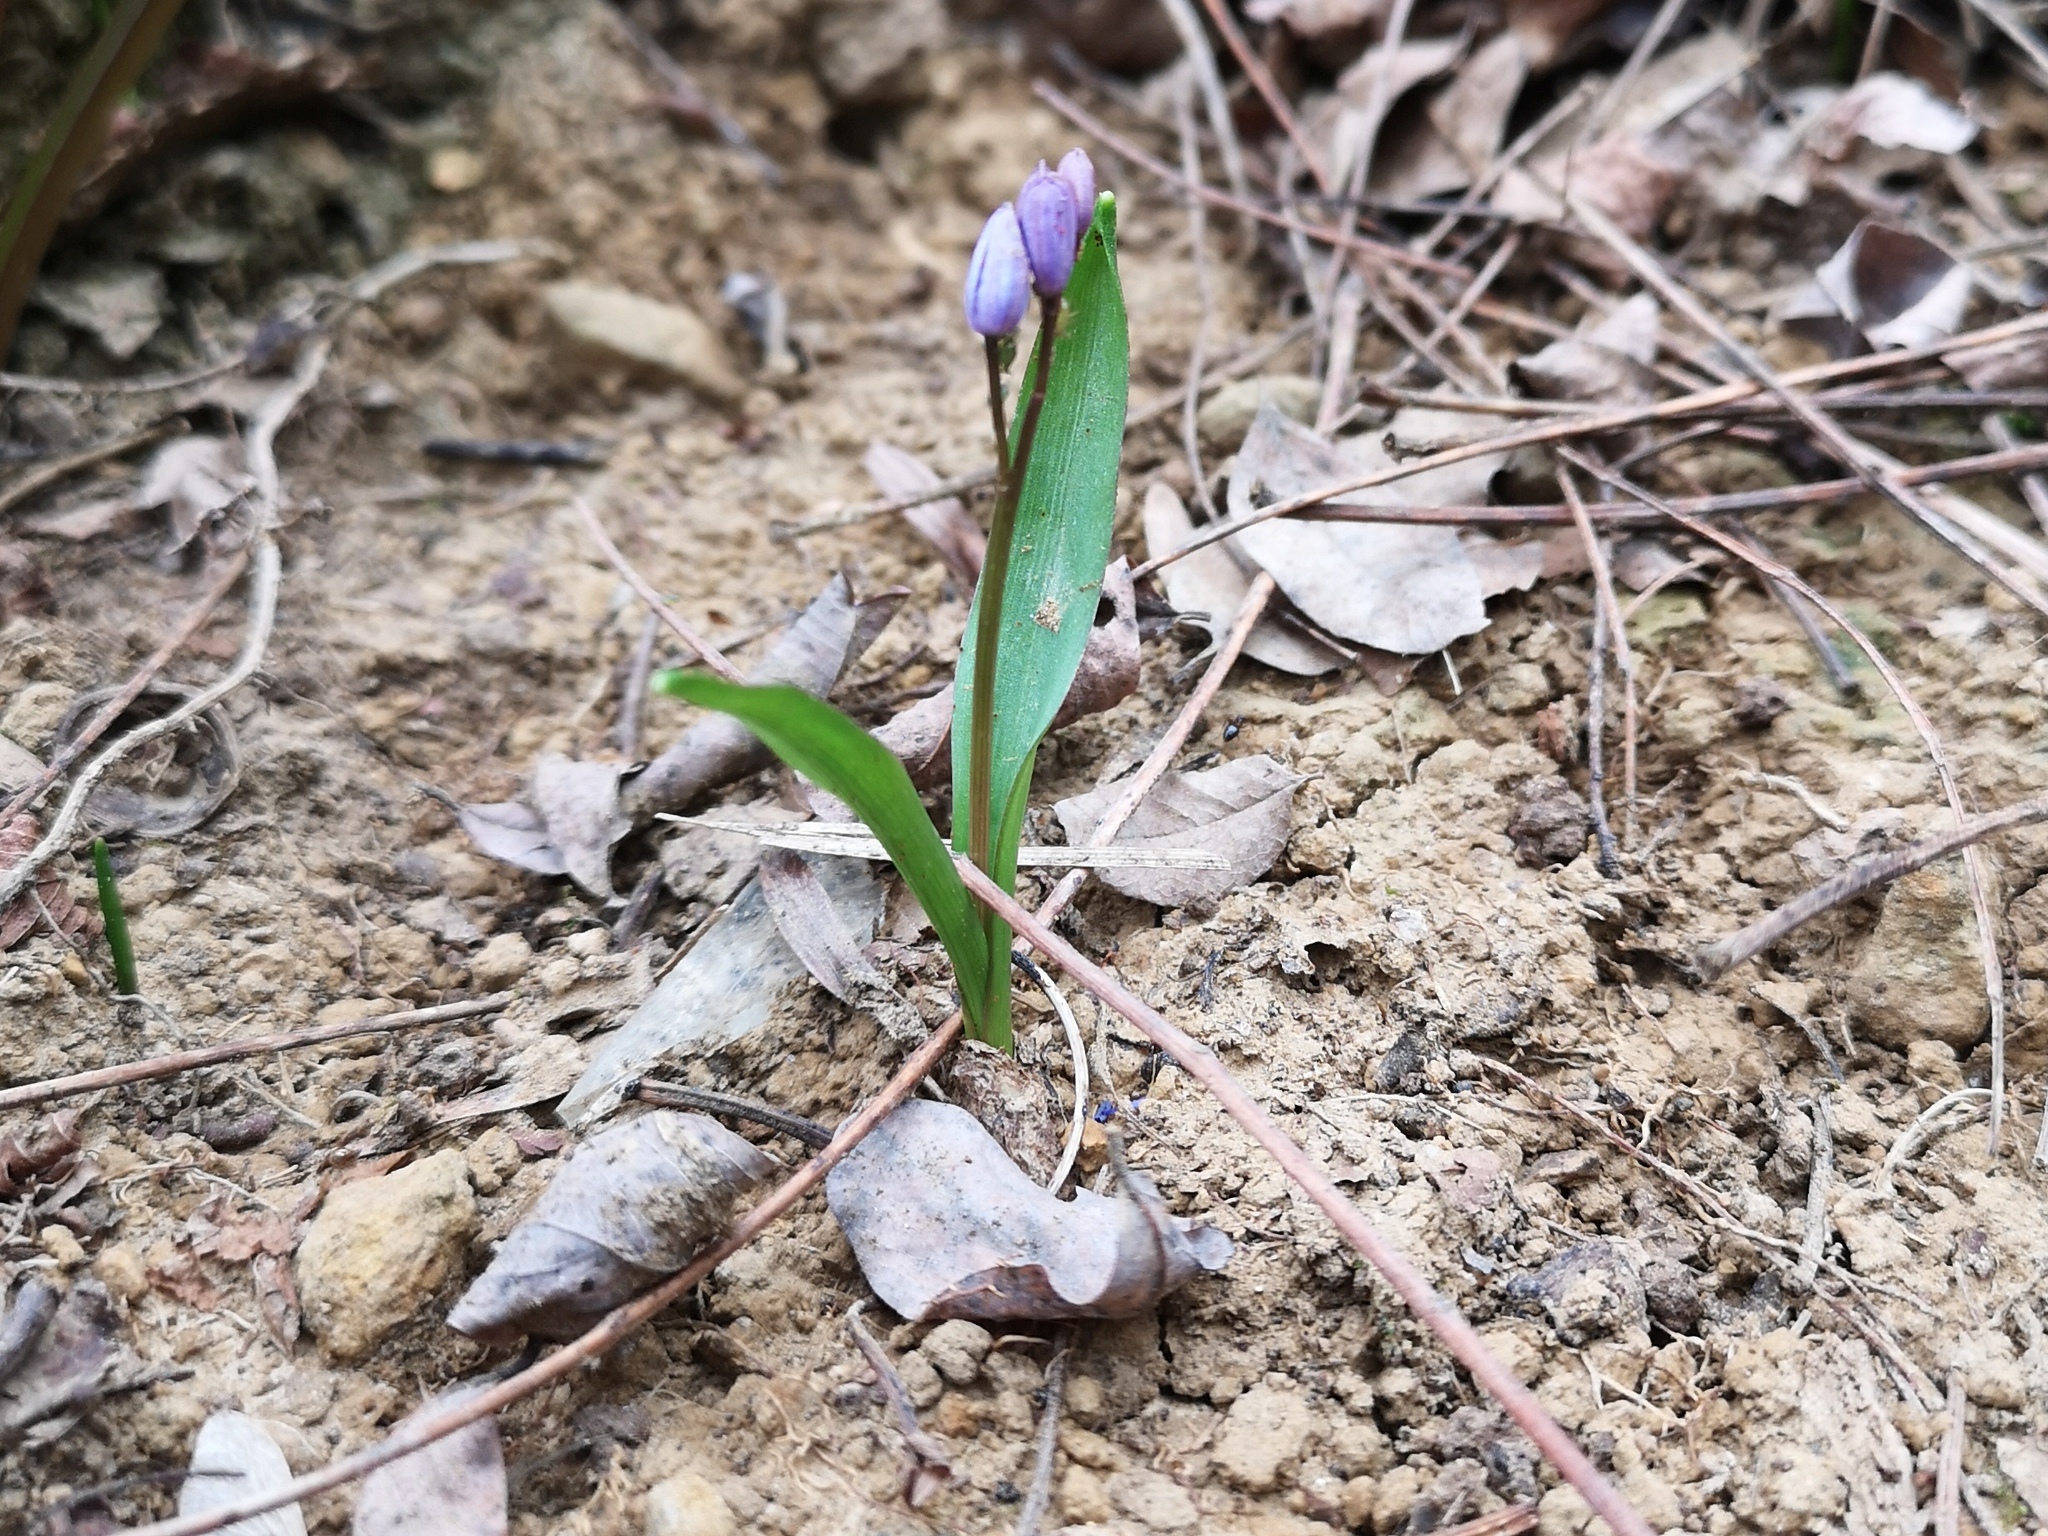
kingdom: Plantae
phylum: Tracheophyta
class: Liliopsida
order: Asparagales
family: Asparagaceae
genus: Scilla
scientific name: Scilla bifolia
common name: Alpine squill
